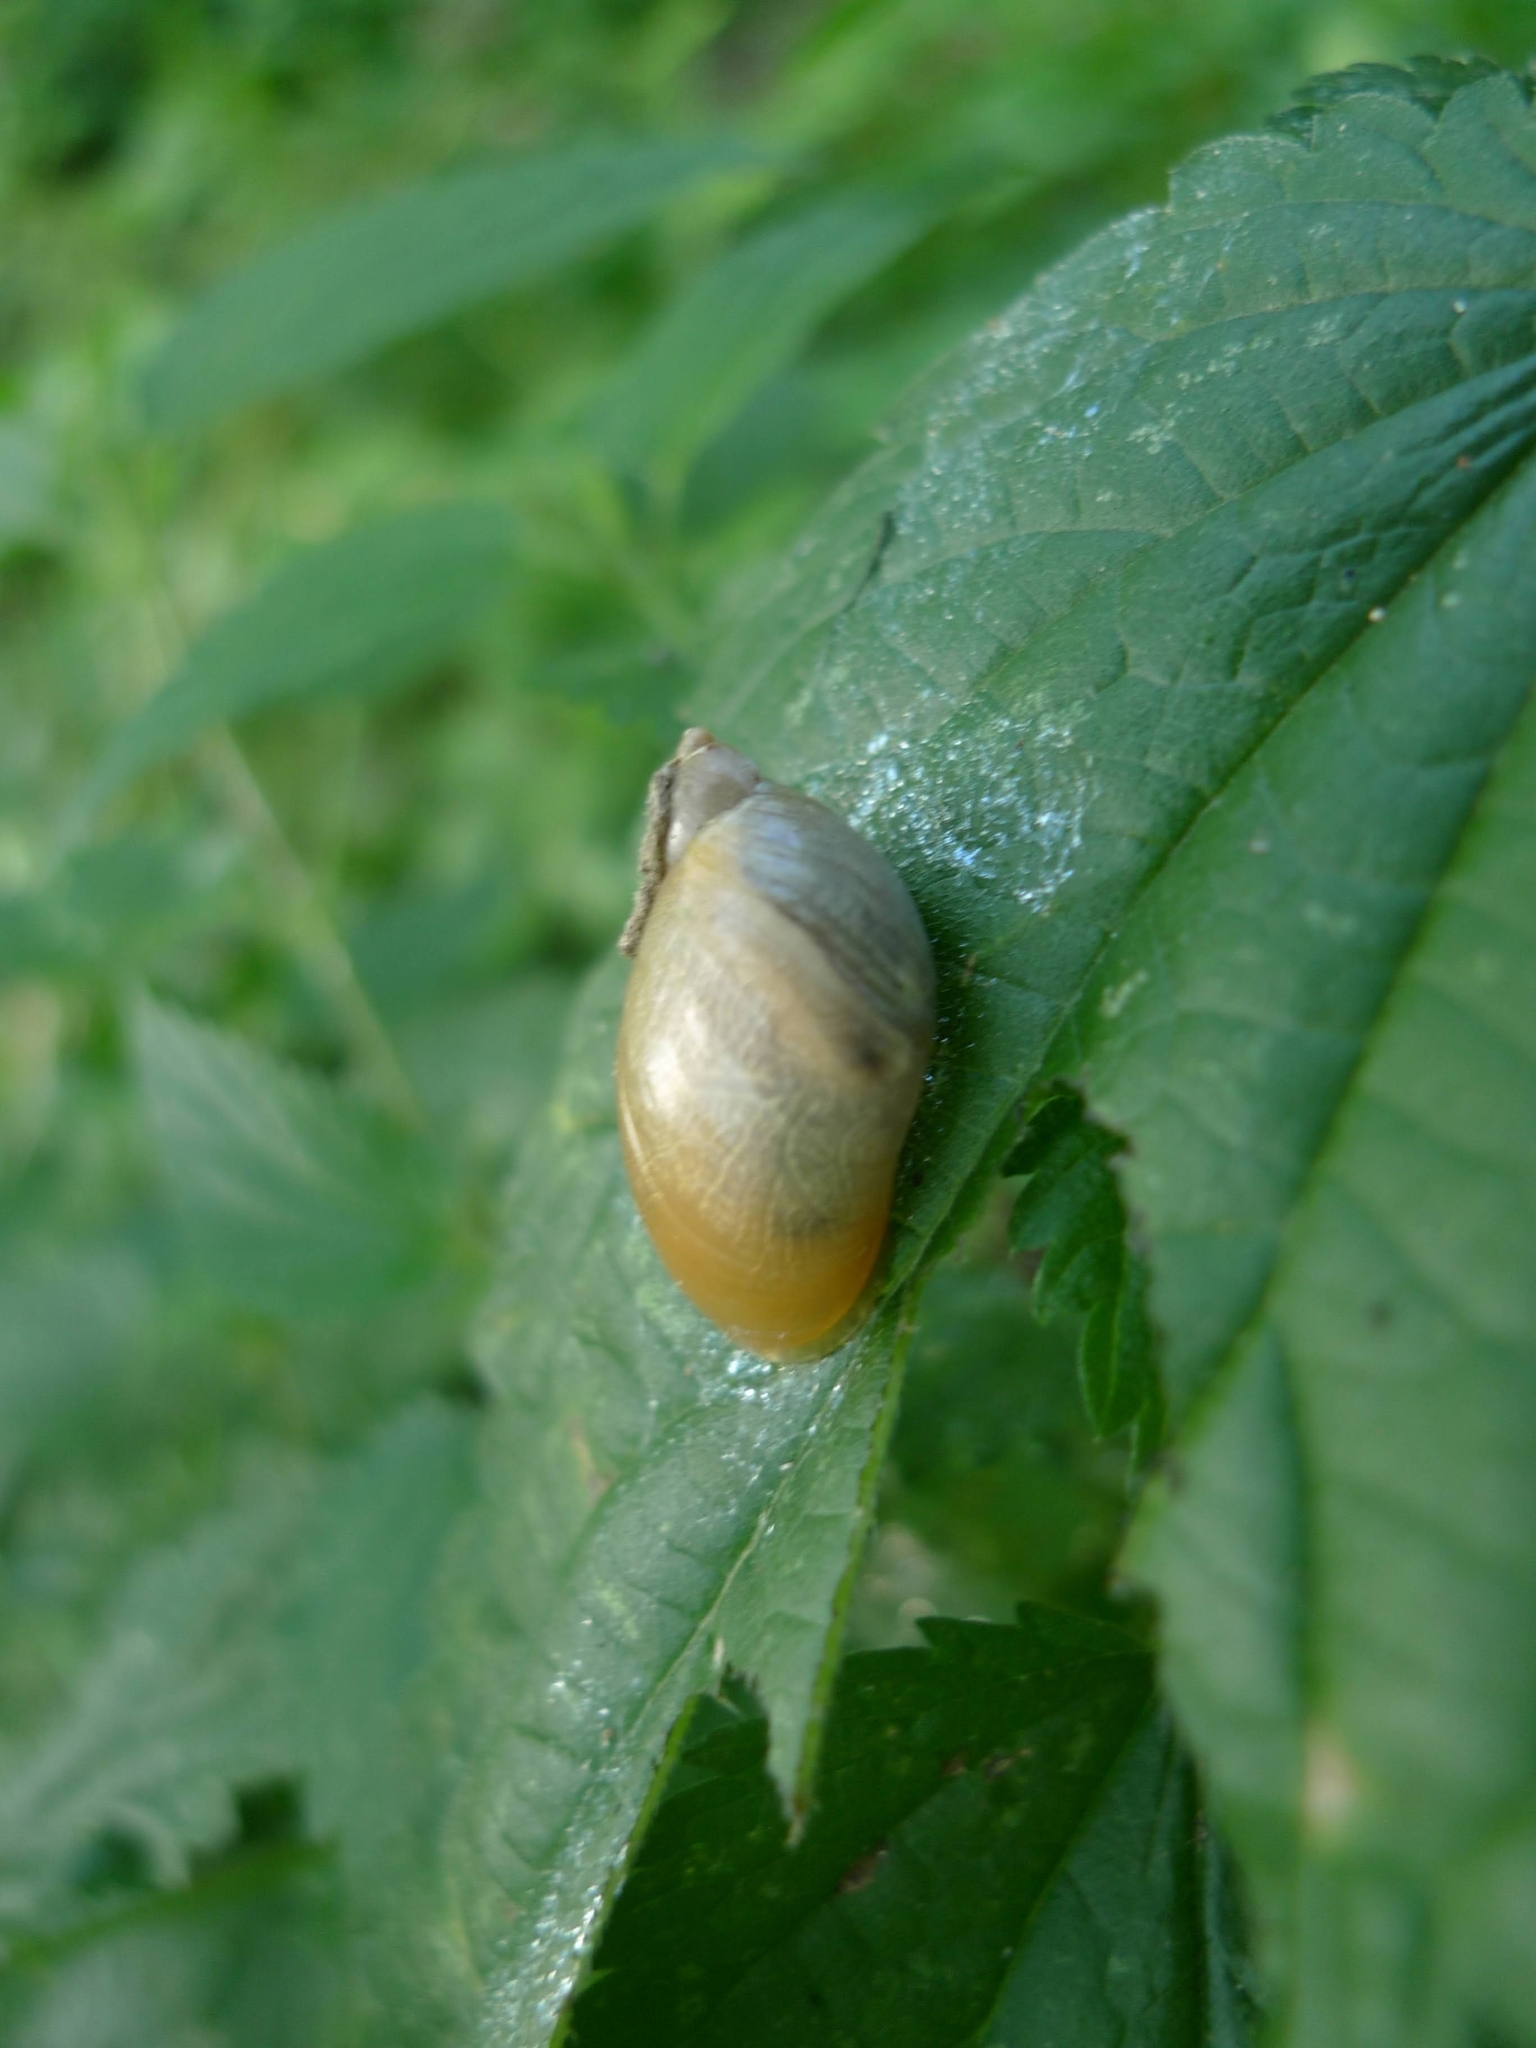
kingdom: Animalia
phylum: Mollusca
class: Gastropoda
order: Stylommatophora
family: Succineidae
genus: Succinea
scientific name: Succinea putris
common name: European ambersnail
